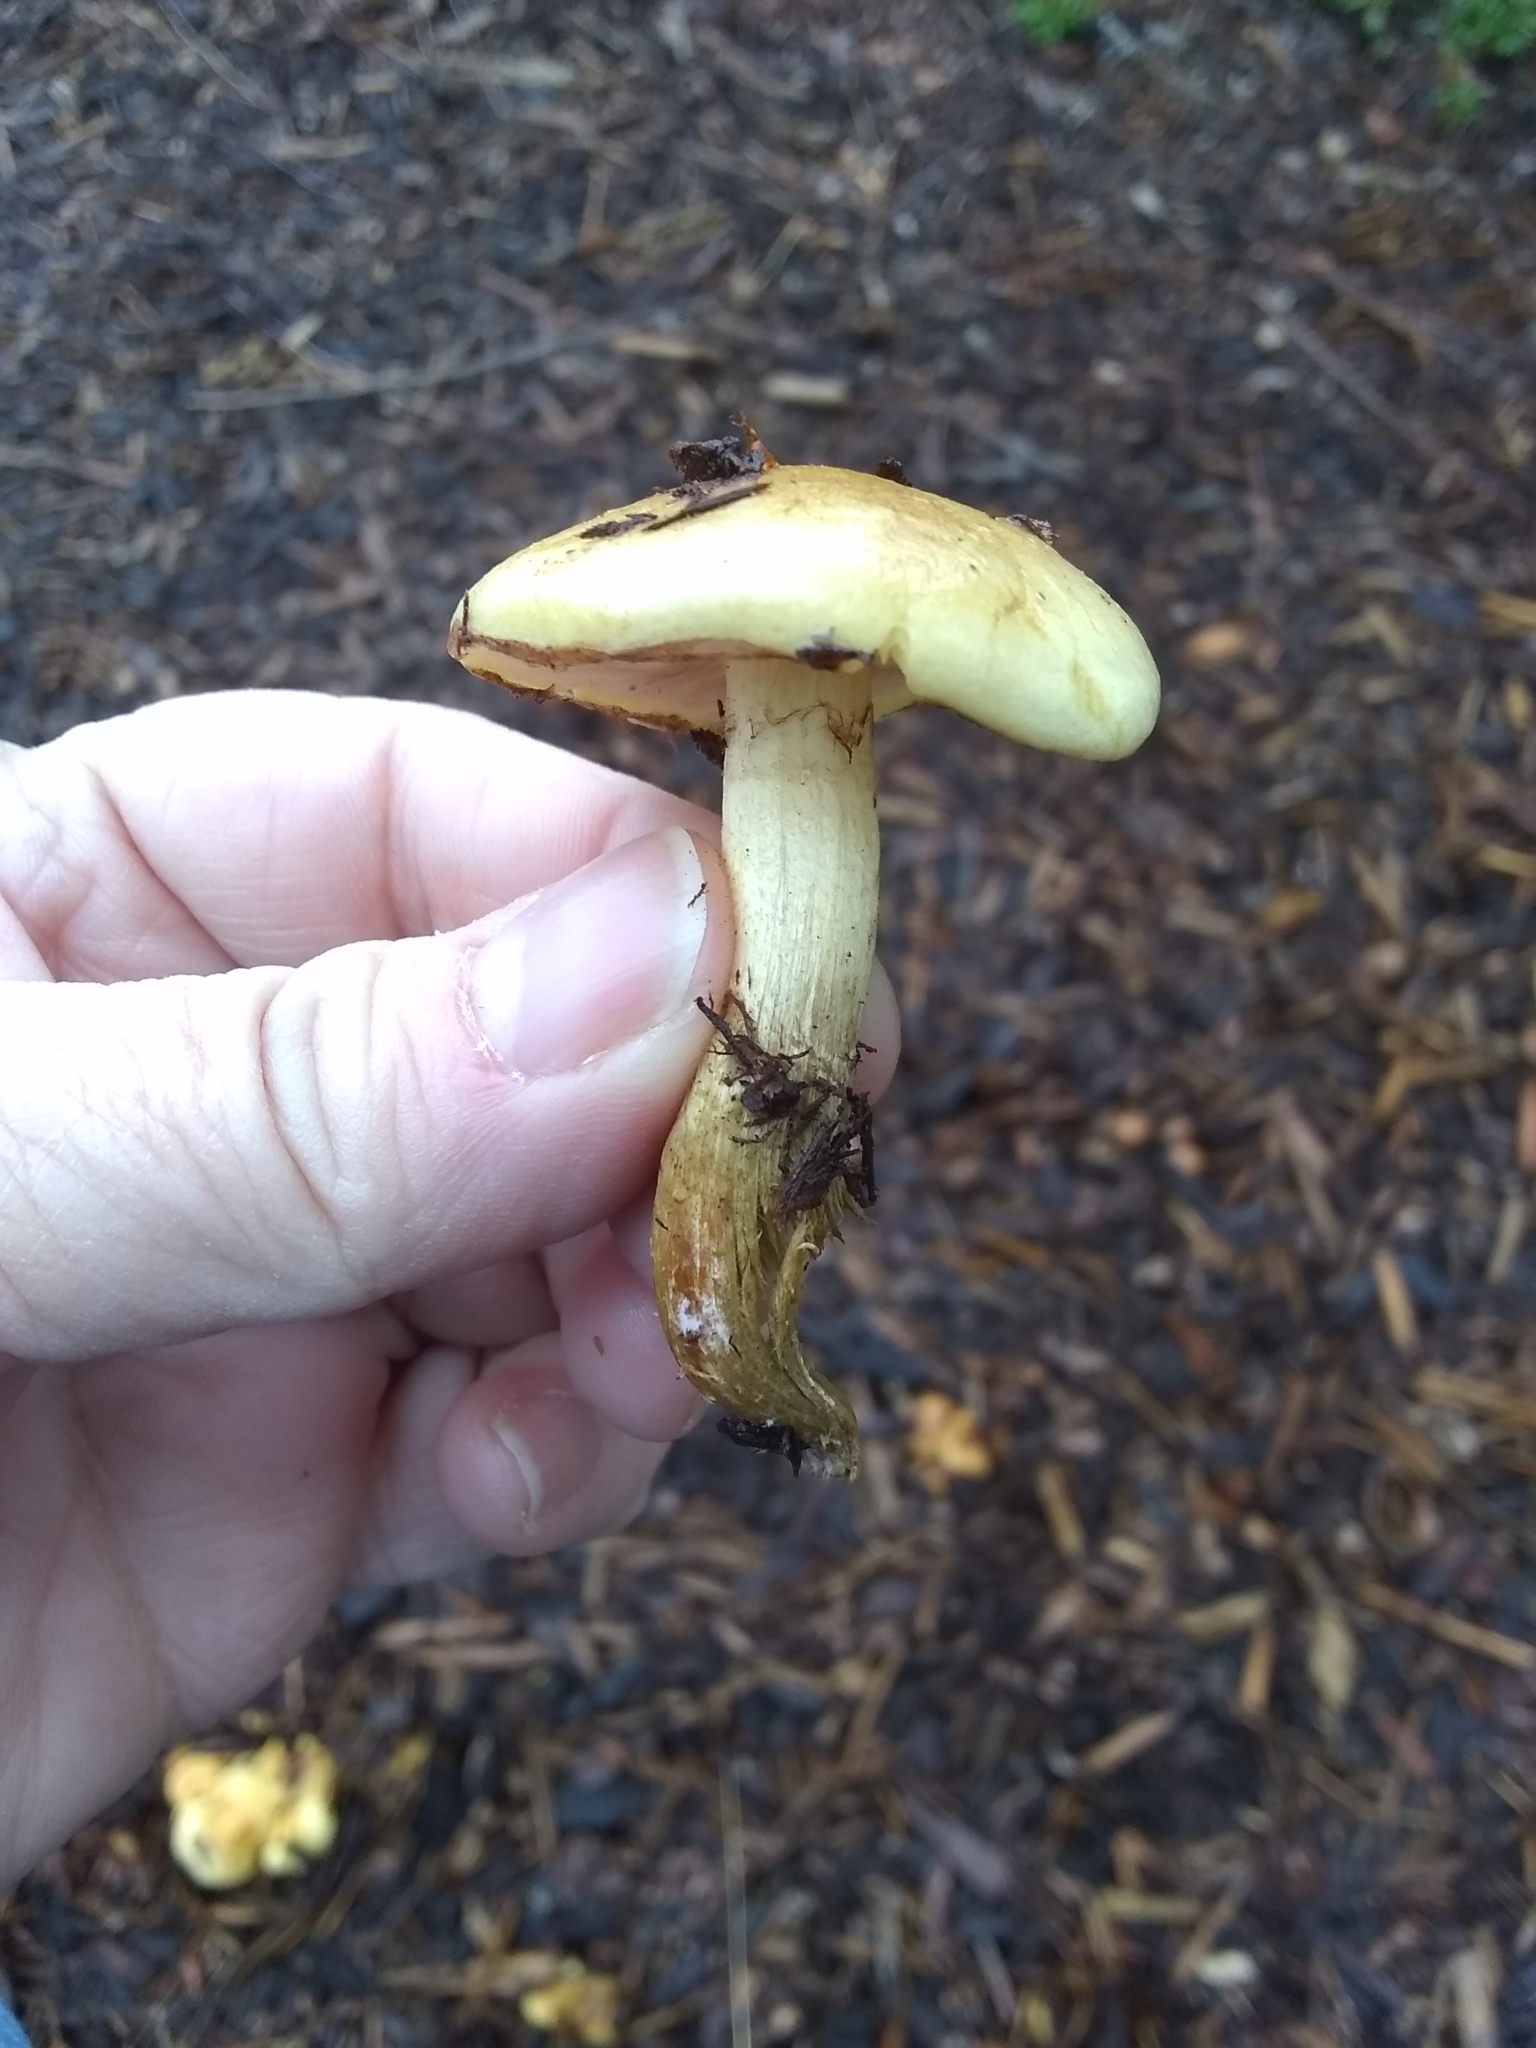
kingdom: Fungi
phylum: Basidiomycota
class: Agaricomycetes
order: Agaricales
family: Strophariaceae
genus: Pholiota
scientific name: Pholiota spumosa
